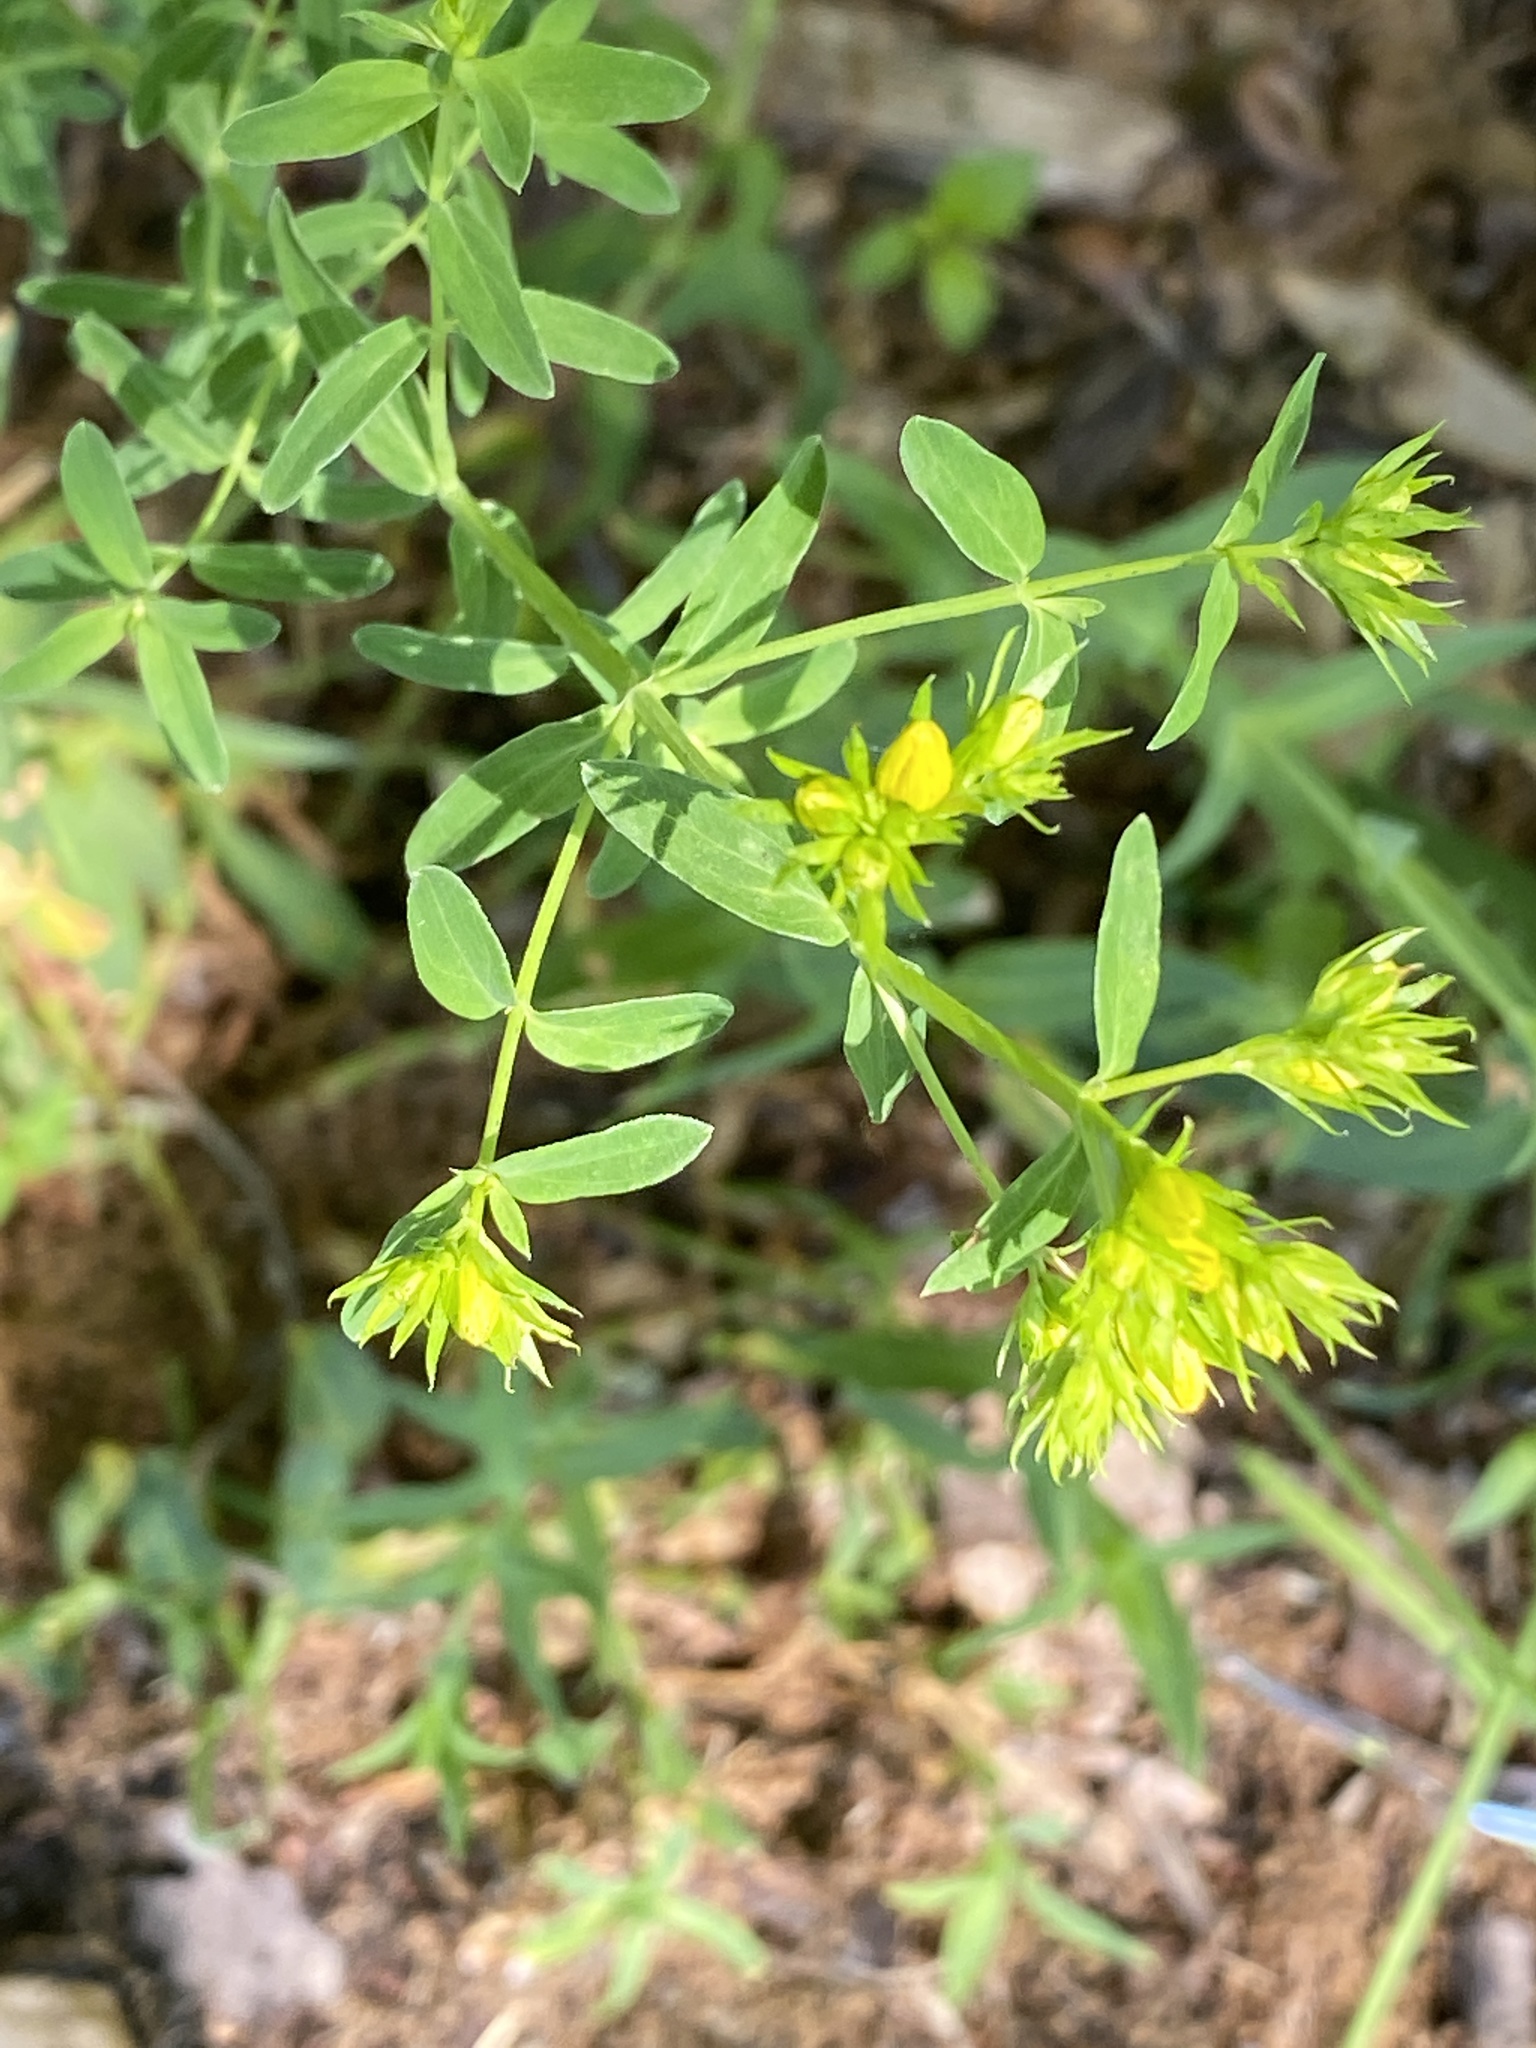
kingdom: Plantae
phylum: Tracheophyta
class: Magnoliopsida
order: Malpighiales
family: Hypericaceae
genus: Hypericum
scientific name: Hypericum perforatum
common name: Common st. johnswort
